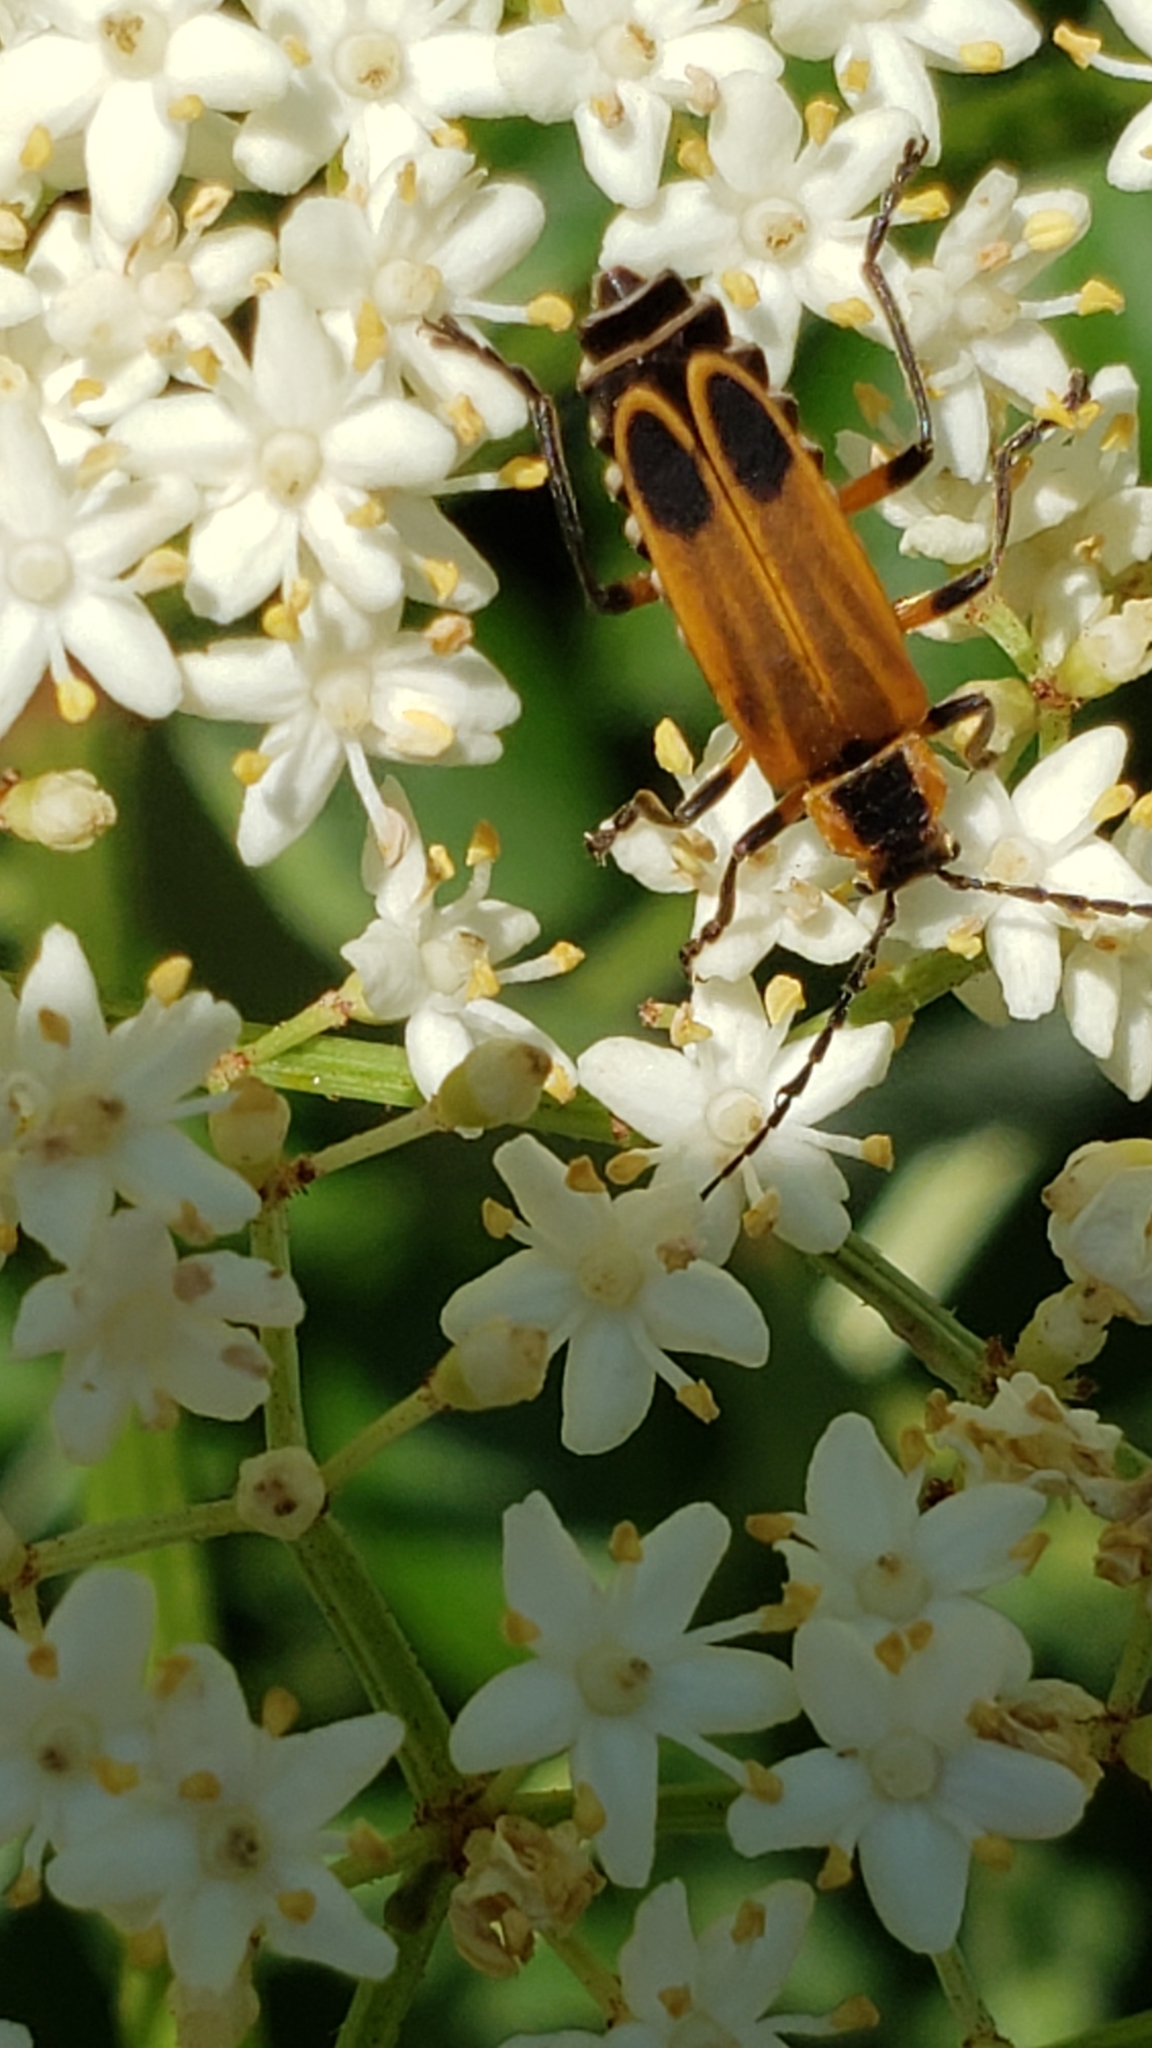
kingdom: Animalia
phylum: Arthropoda
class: Insecta
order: Coleoptera
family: Cantharidae
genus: Chauliognathus
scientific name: Chauliognathus marginatus
